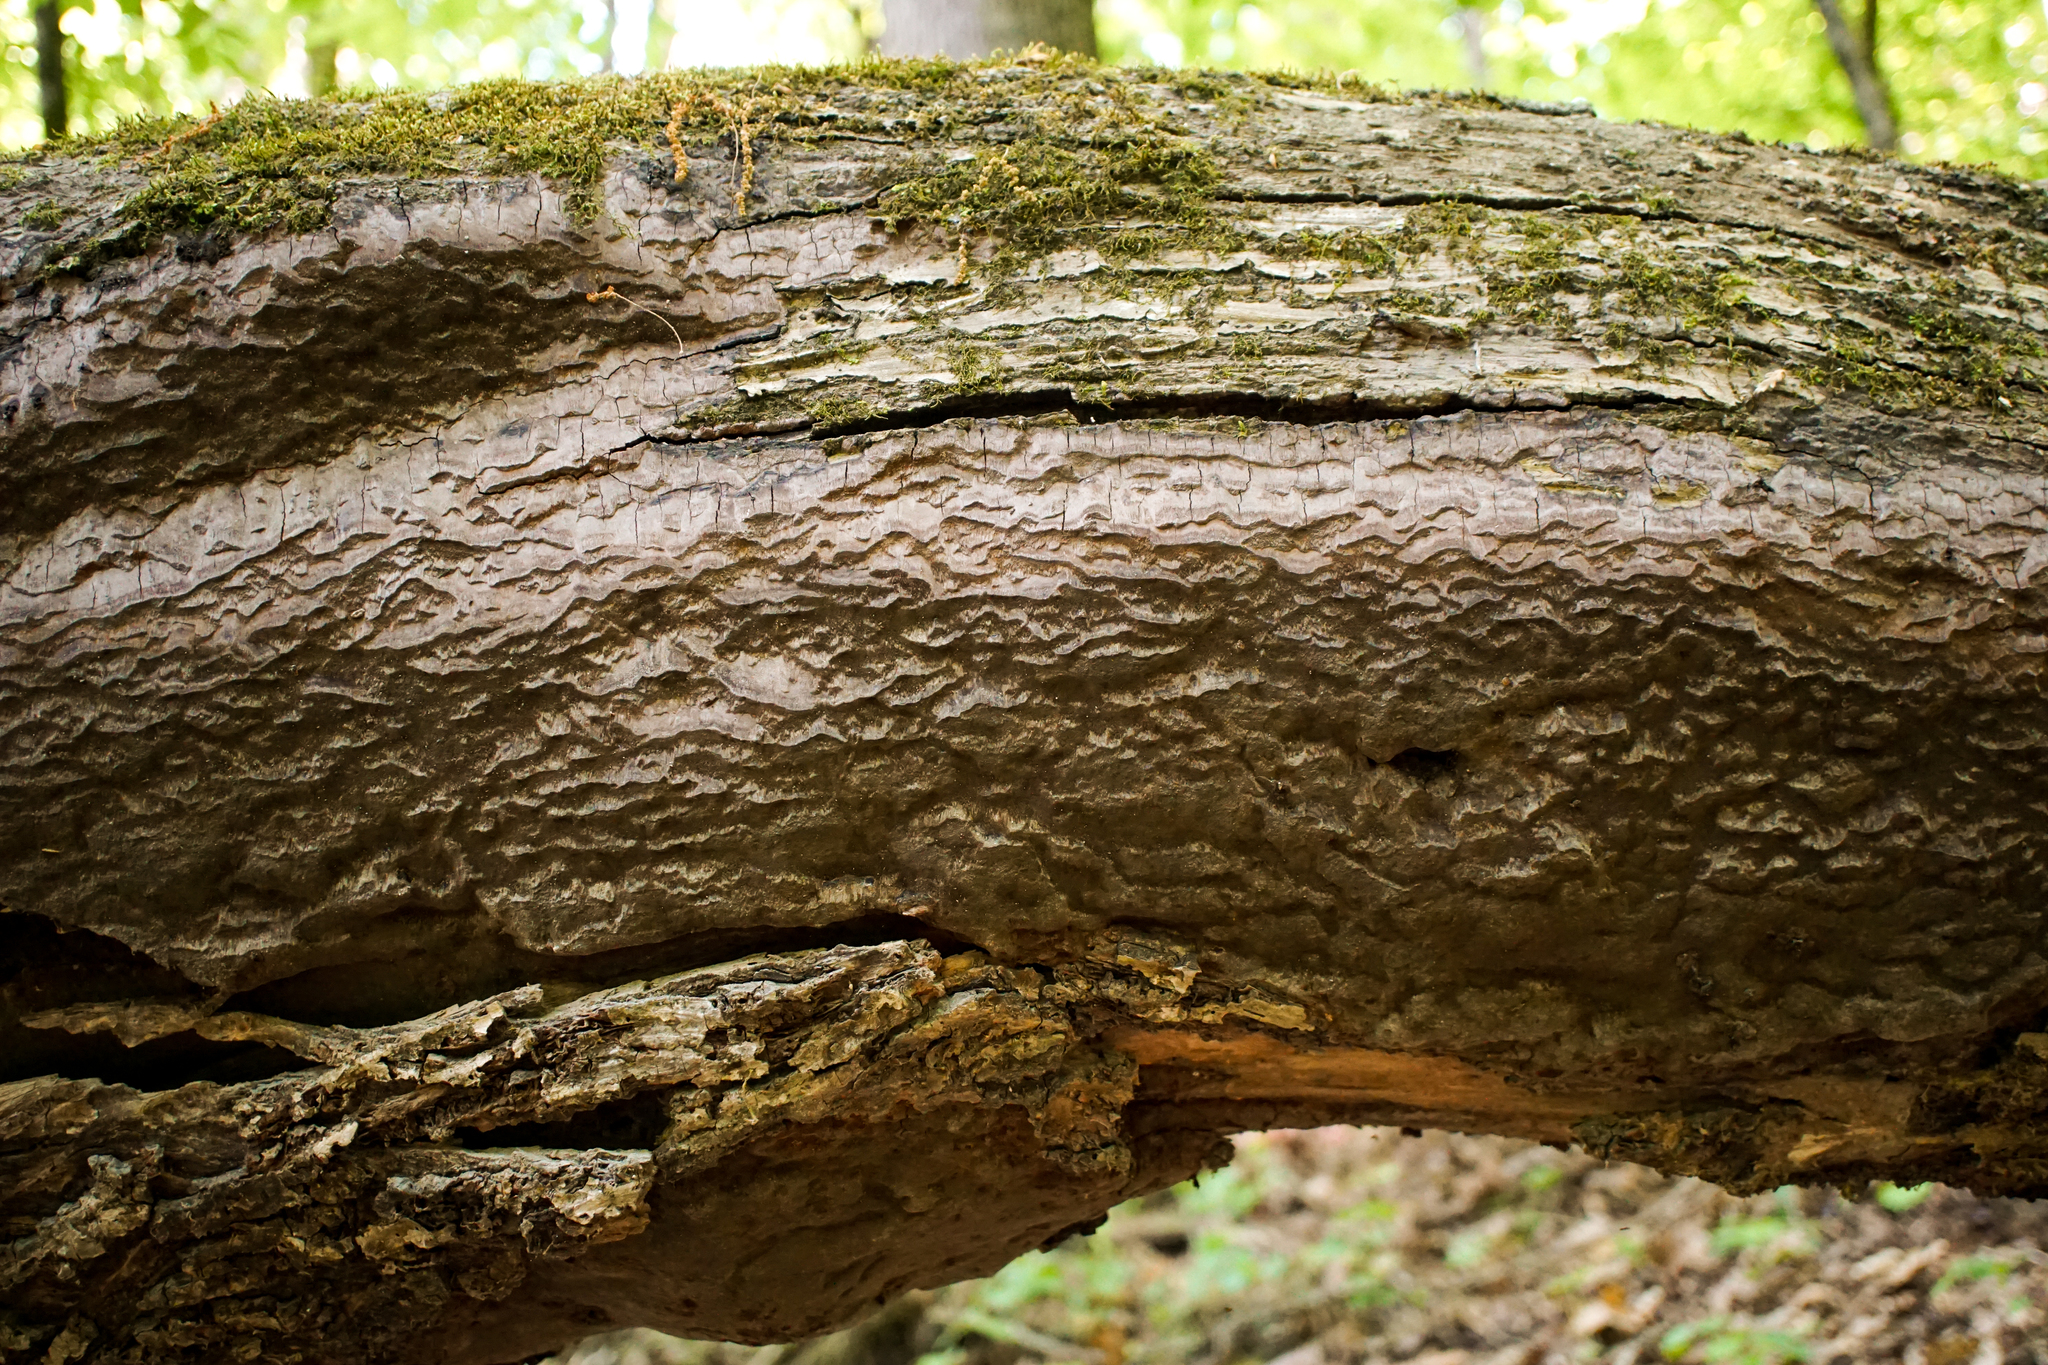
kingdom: Fungi
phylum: Basidiomycota
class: Agaricomycetes
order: Hymenochaetales
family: Hymenochaetaceae
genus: Rigidonotus
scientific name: Rigidonotus glomeratus
